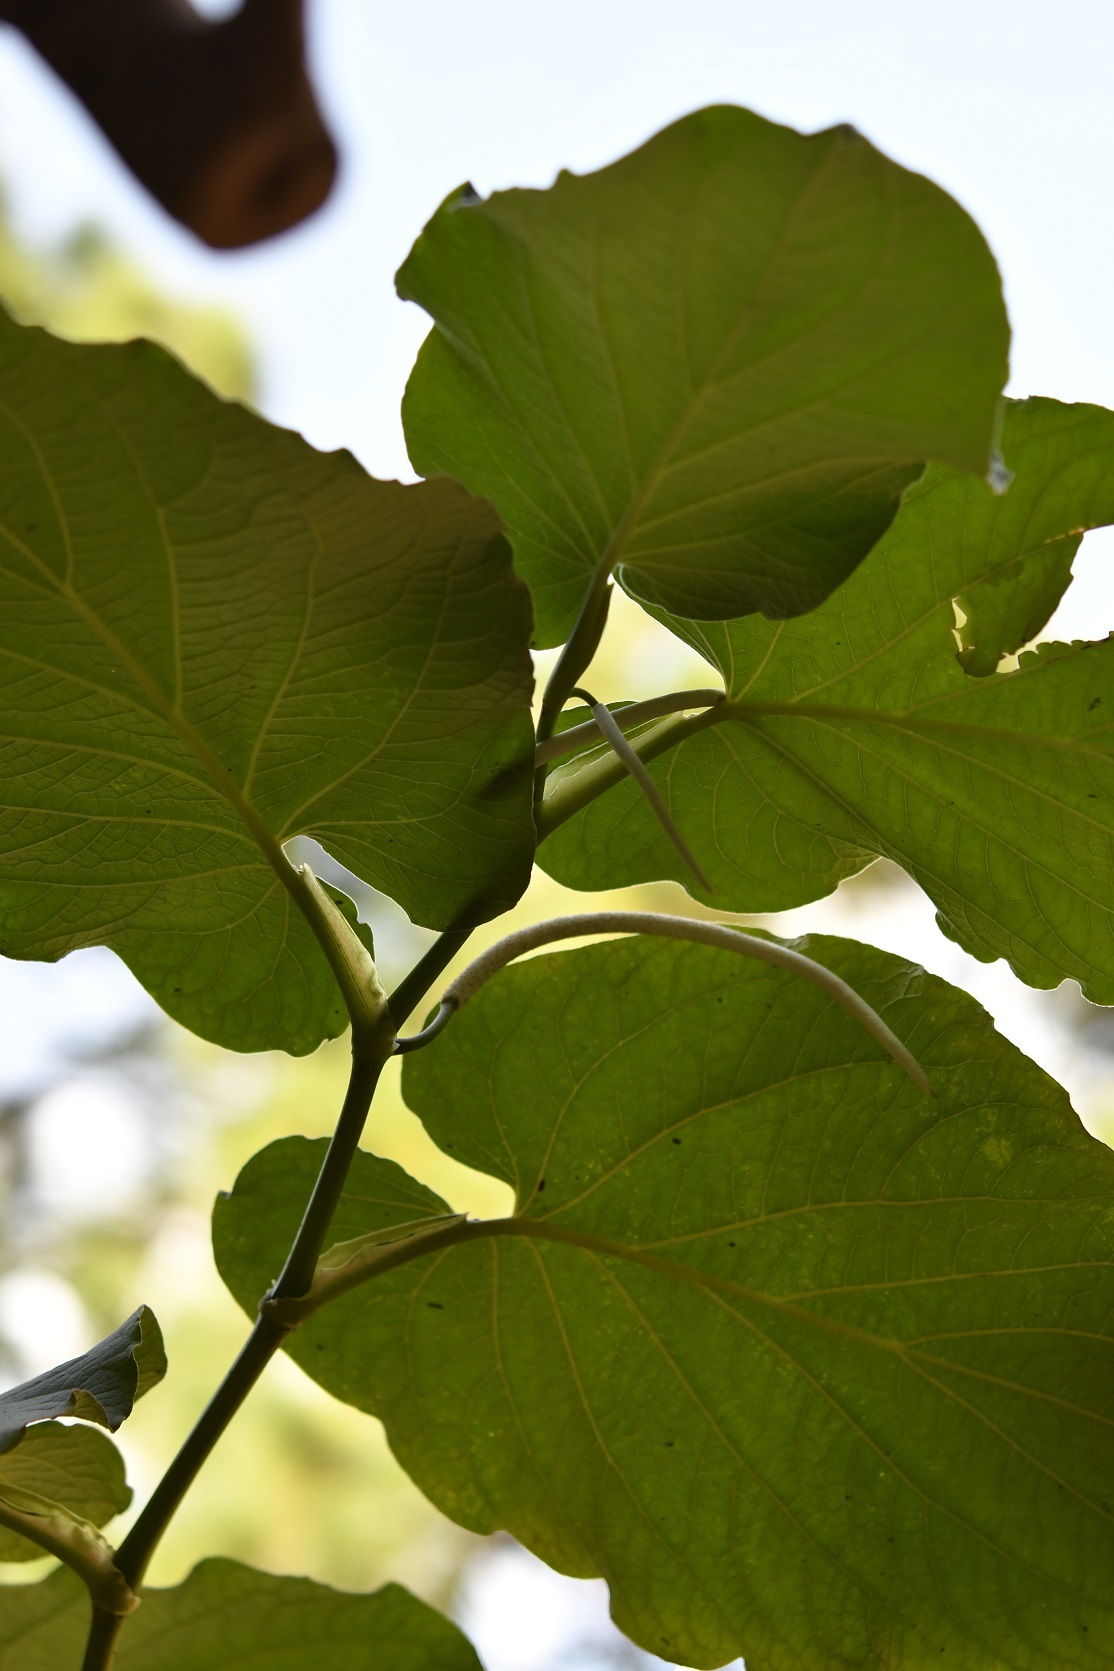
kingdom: Plantae
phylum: Tracheophyta
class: Magnoliopsida
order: Piperales
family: Piperaceae
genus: Piper
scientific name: Piper auritum
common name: Vera cruz pepper
